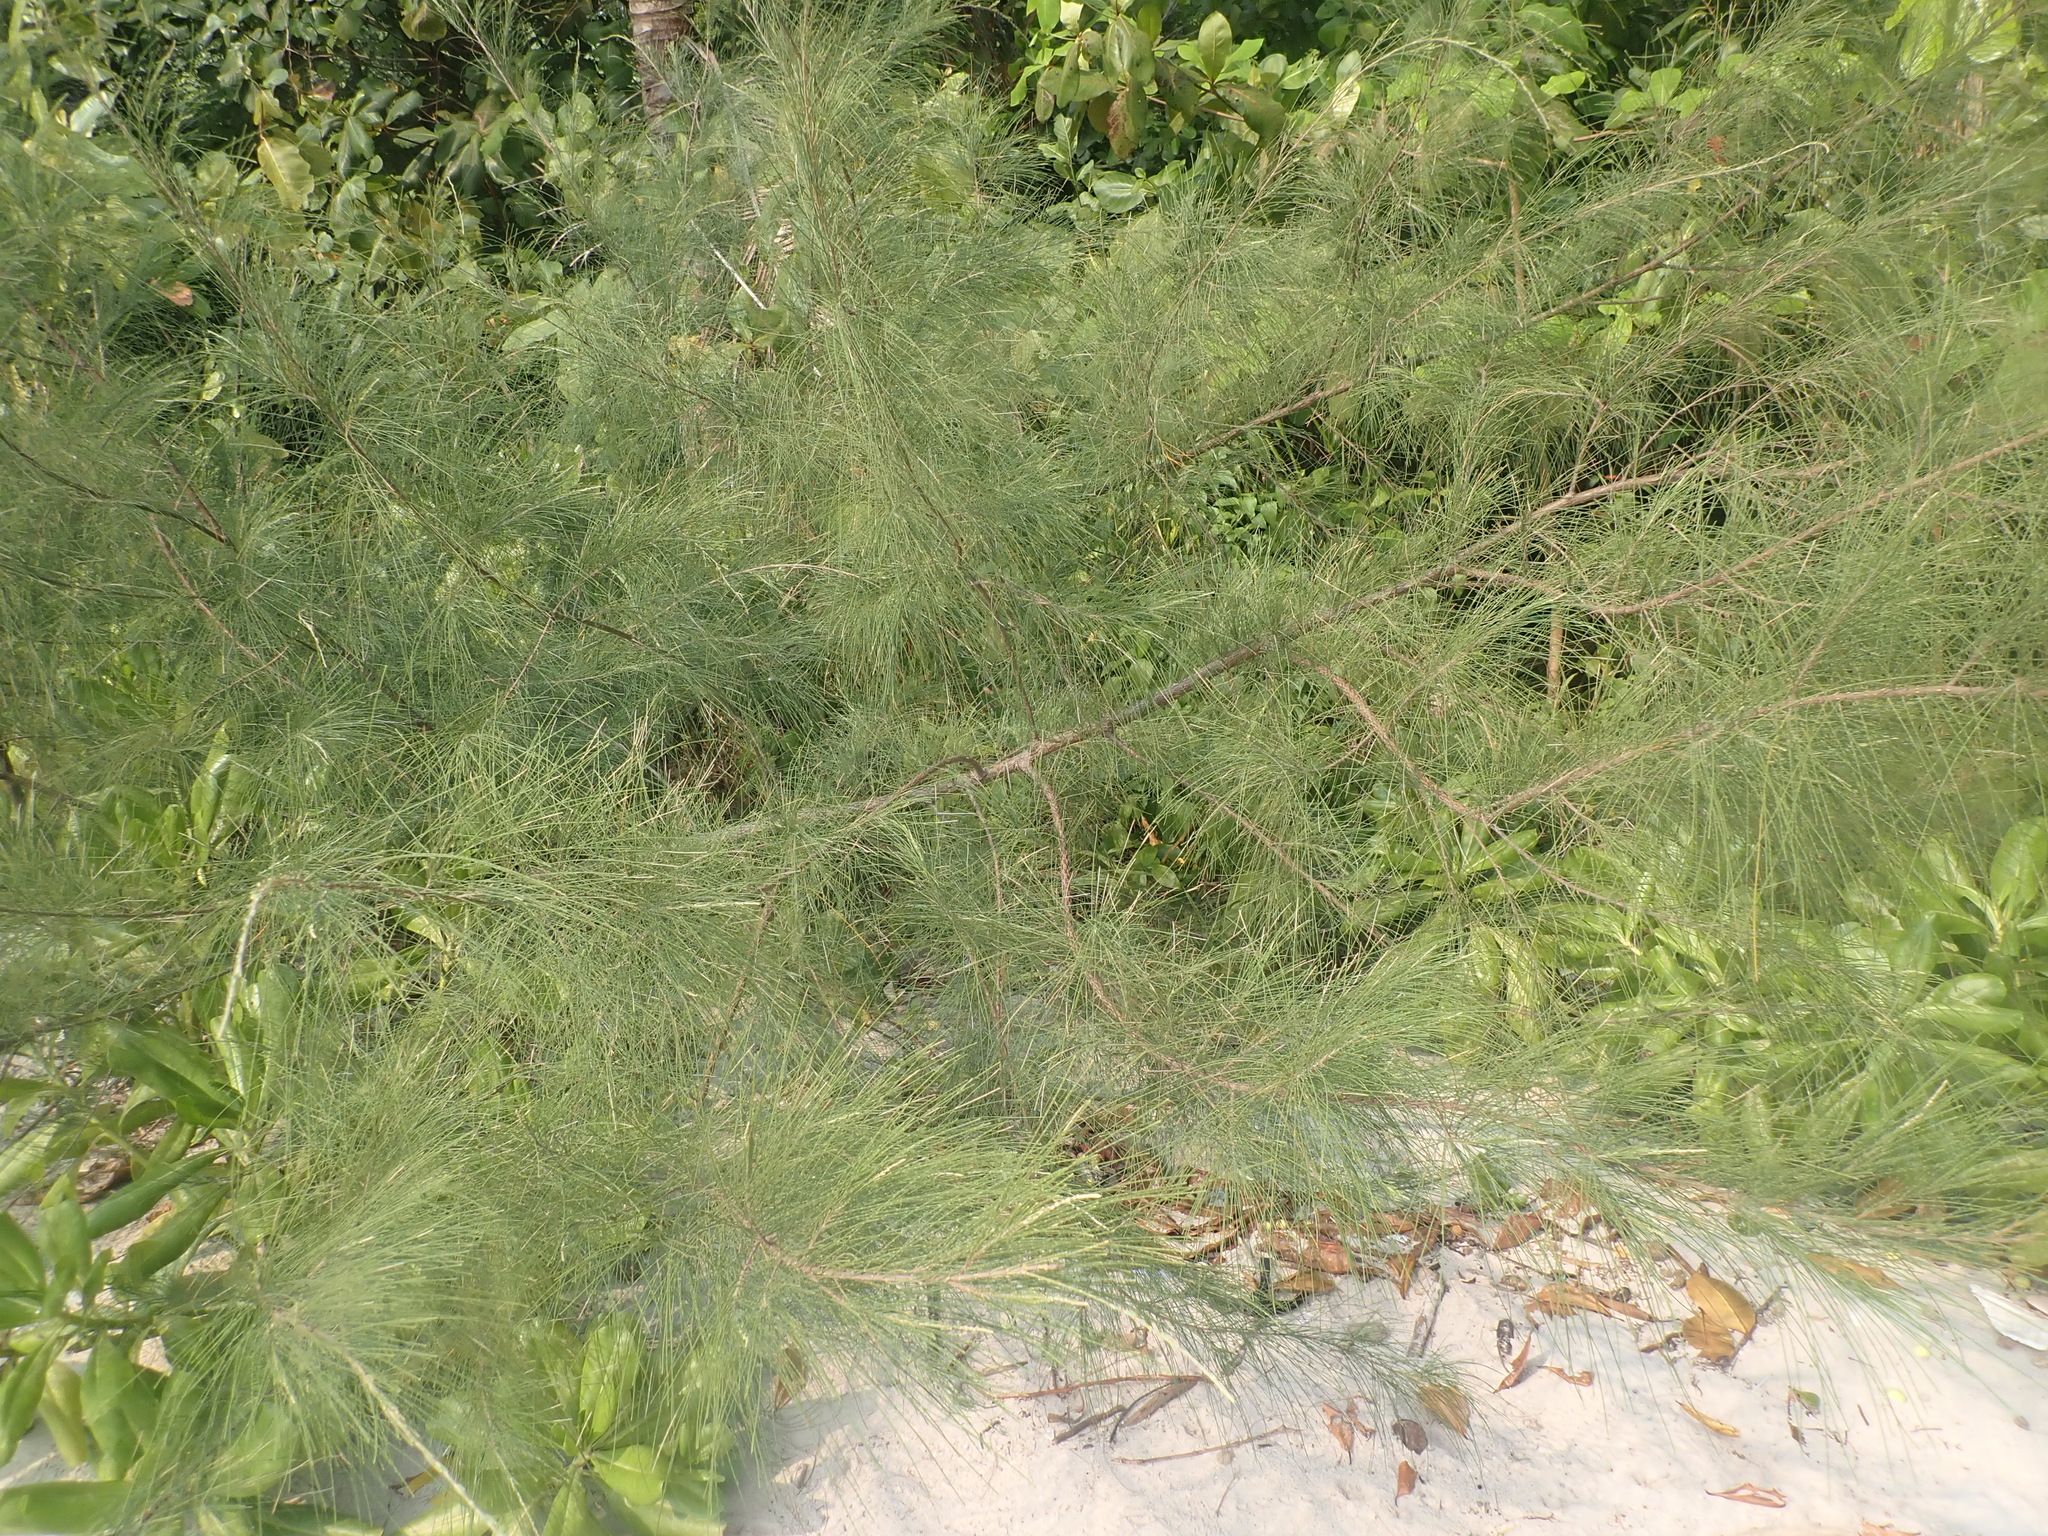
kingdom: Plantae
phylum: Tracheophyta
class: Magnoliopsida
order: Fagales
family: Casuarinaceae
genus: Casuarina
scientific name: Casuarina equisetifolia
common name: Beach sheoak
